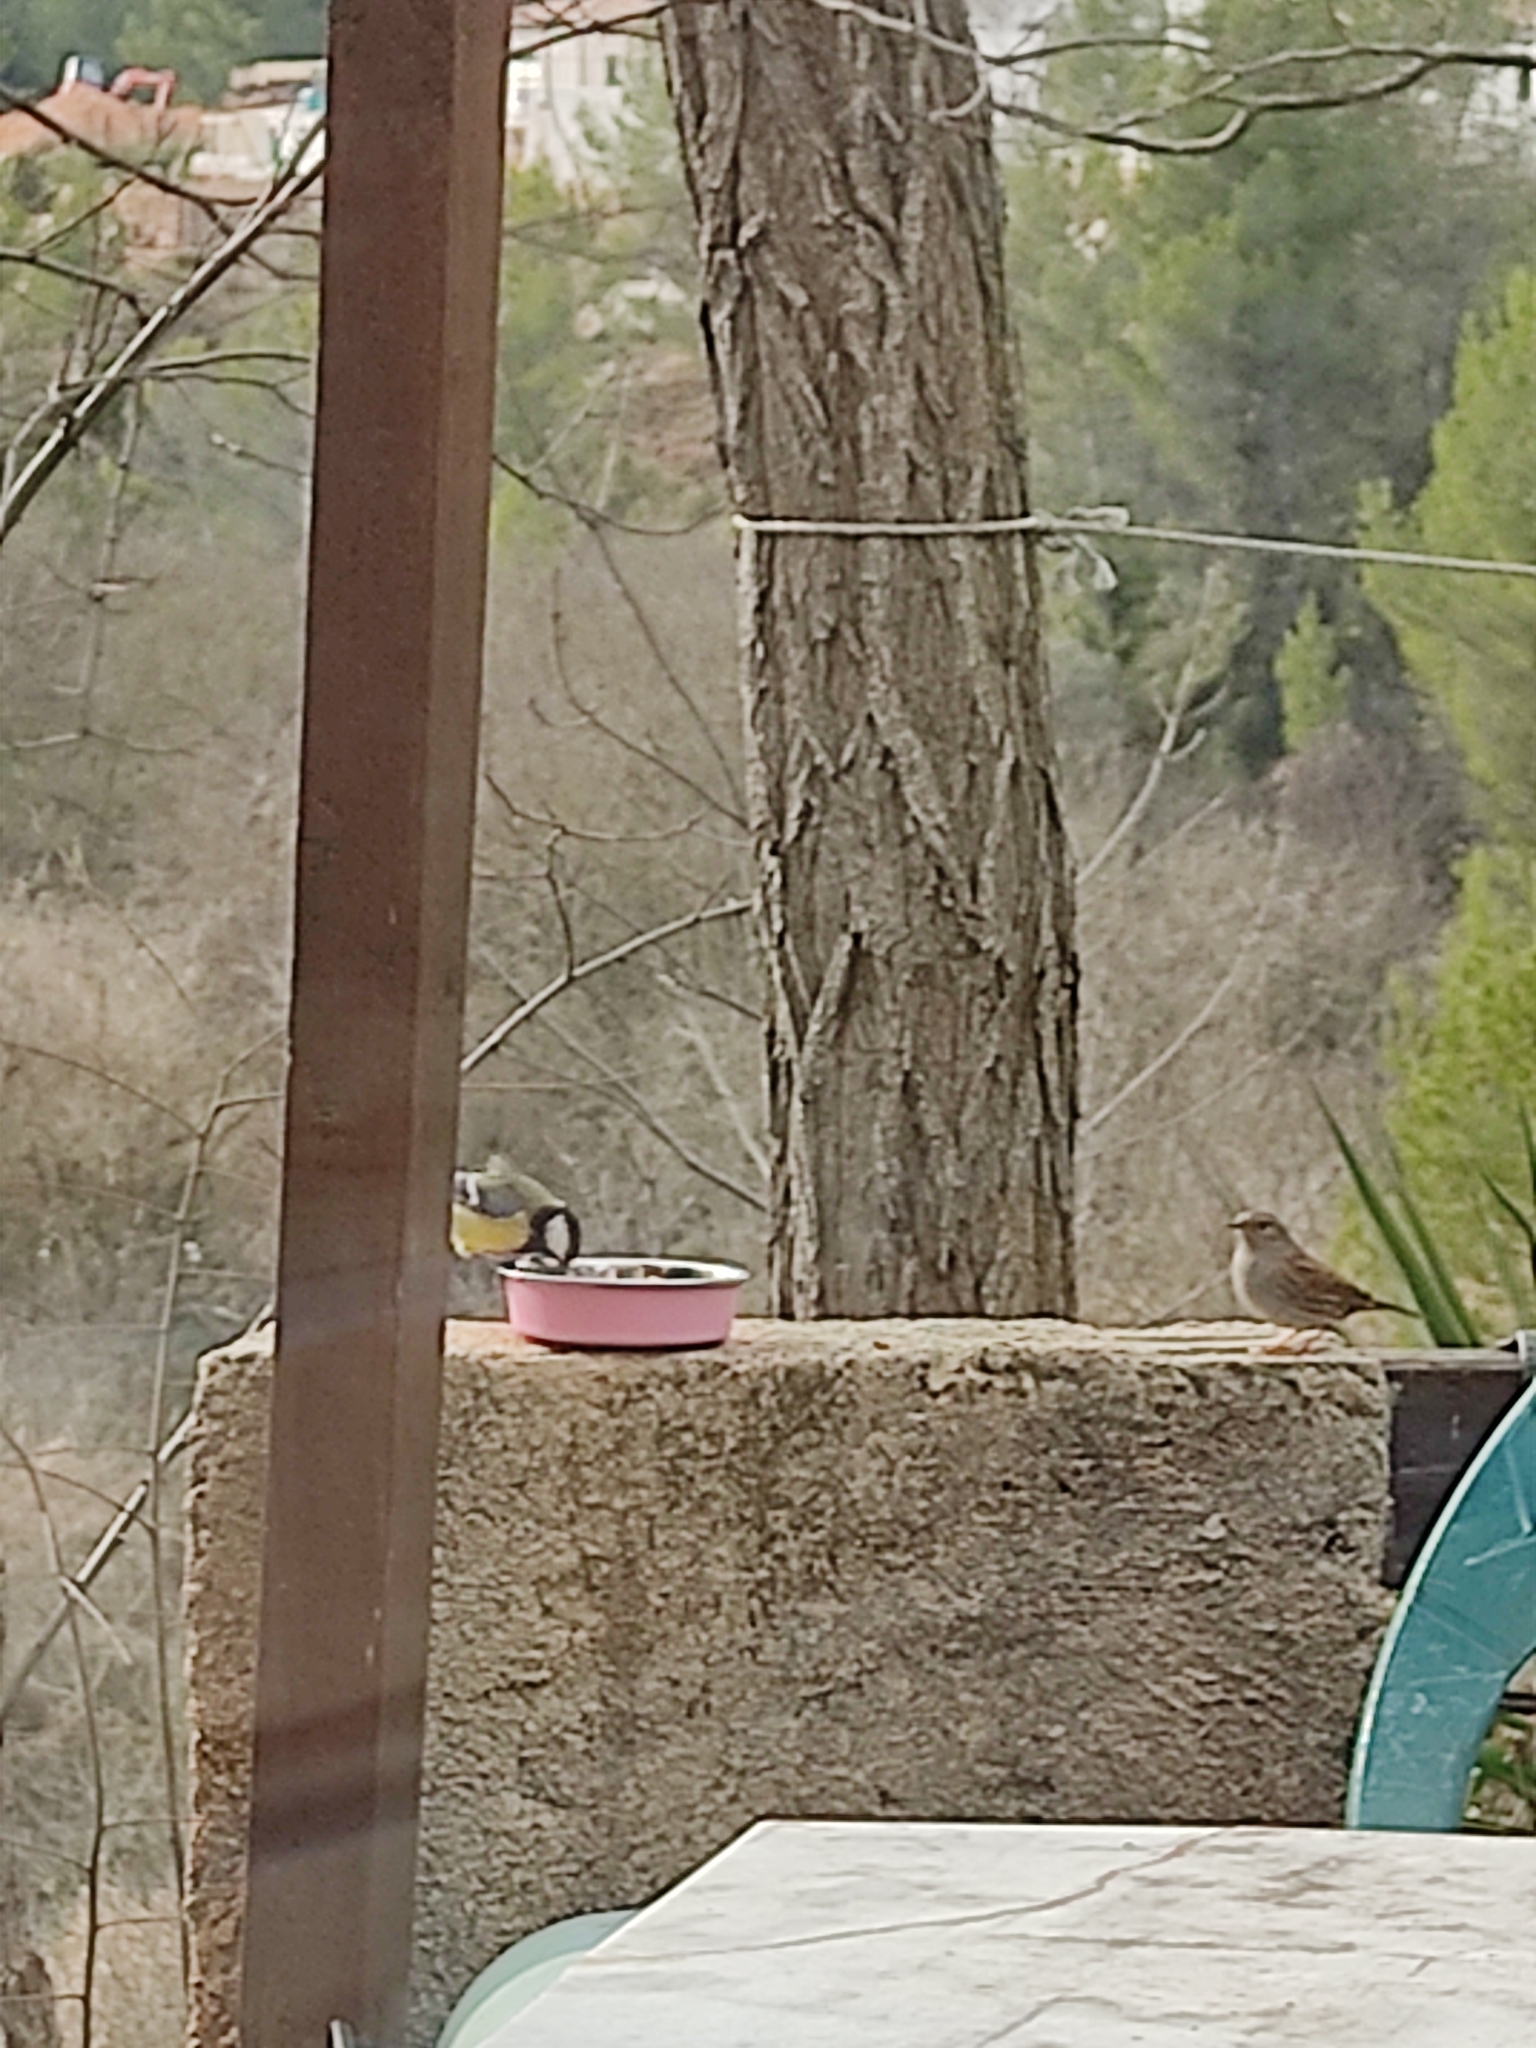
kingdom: Animalia
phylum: Chordata
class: Aves
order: Passeriformes
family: Paridae
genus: Parus
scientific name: Parus major
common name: Great tit
